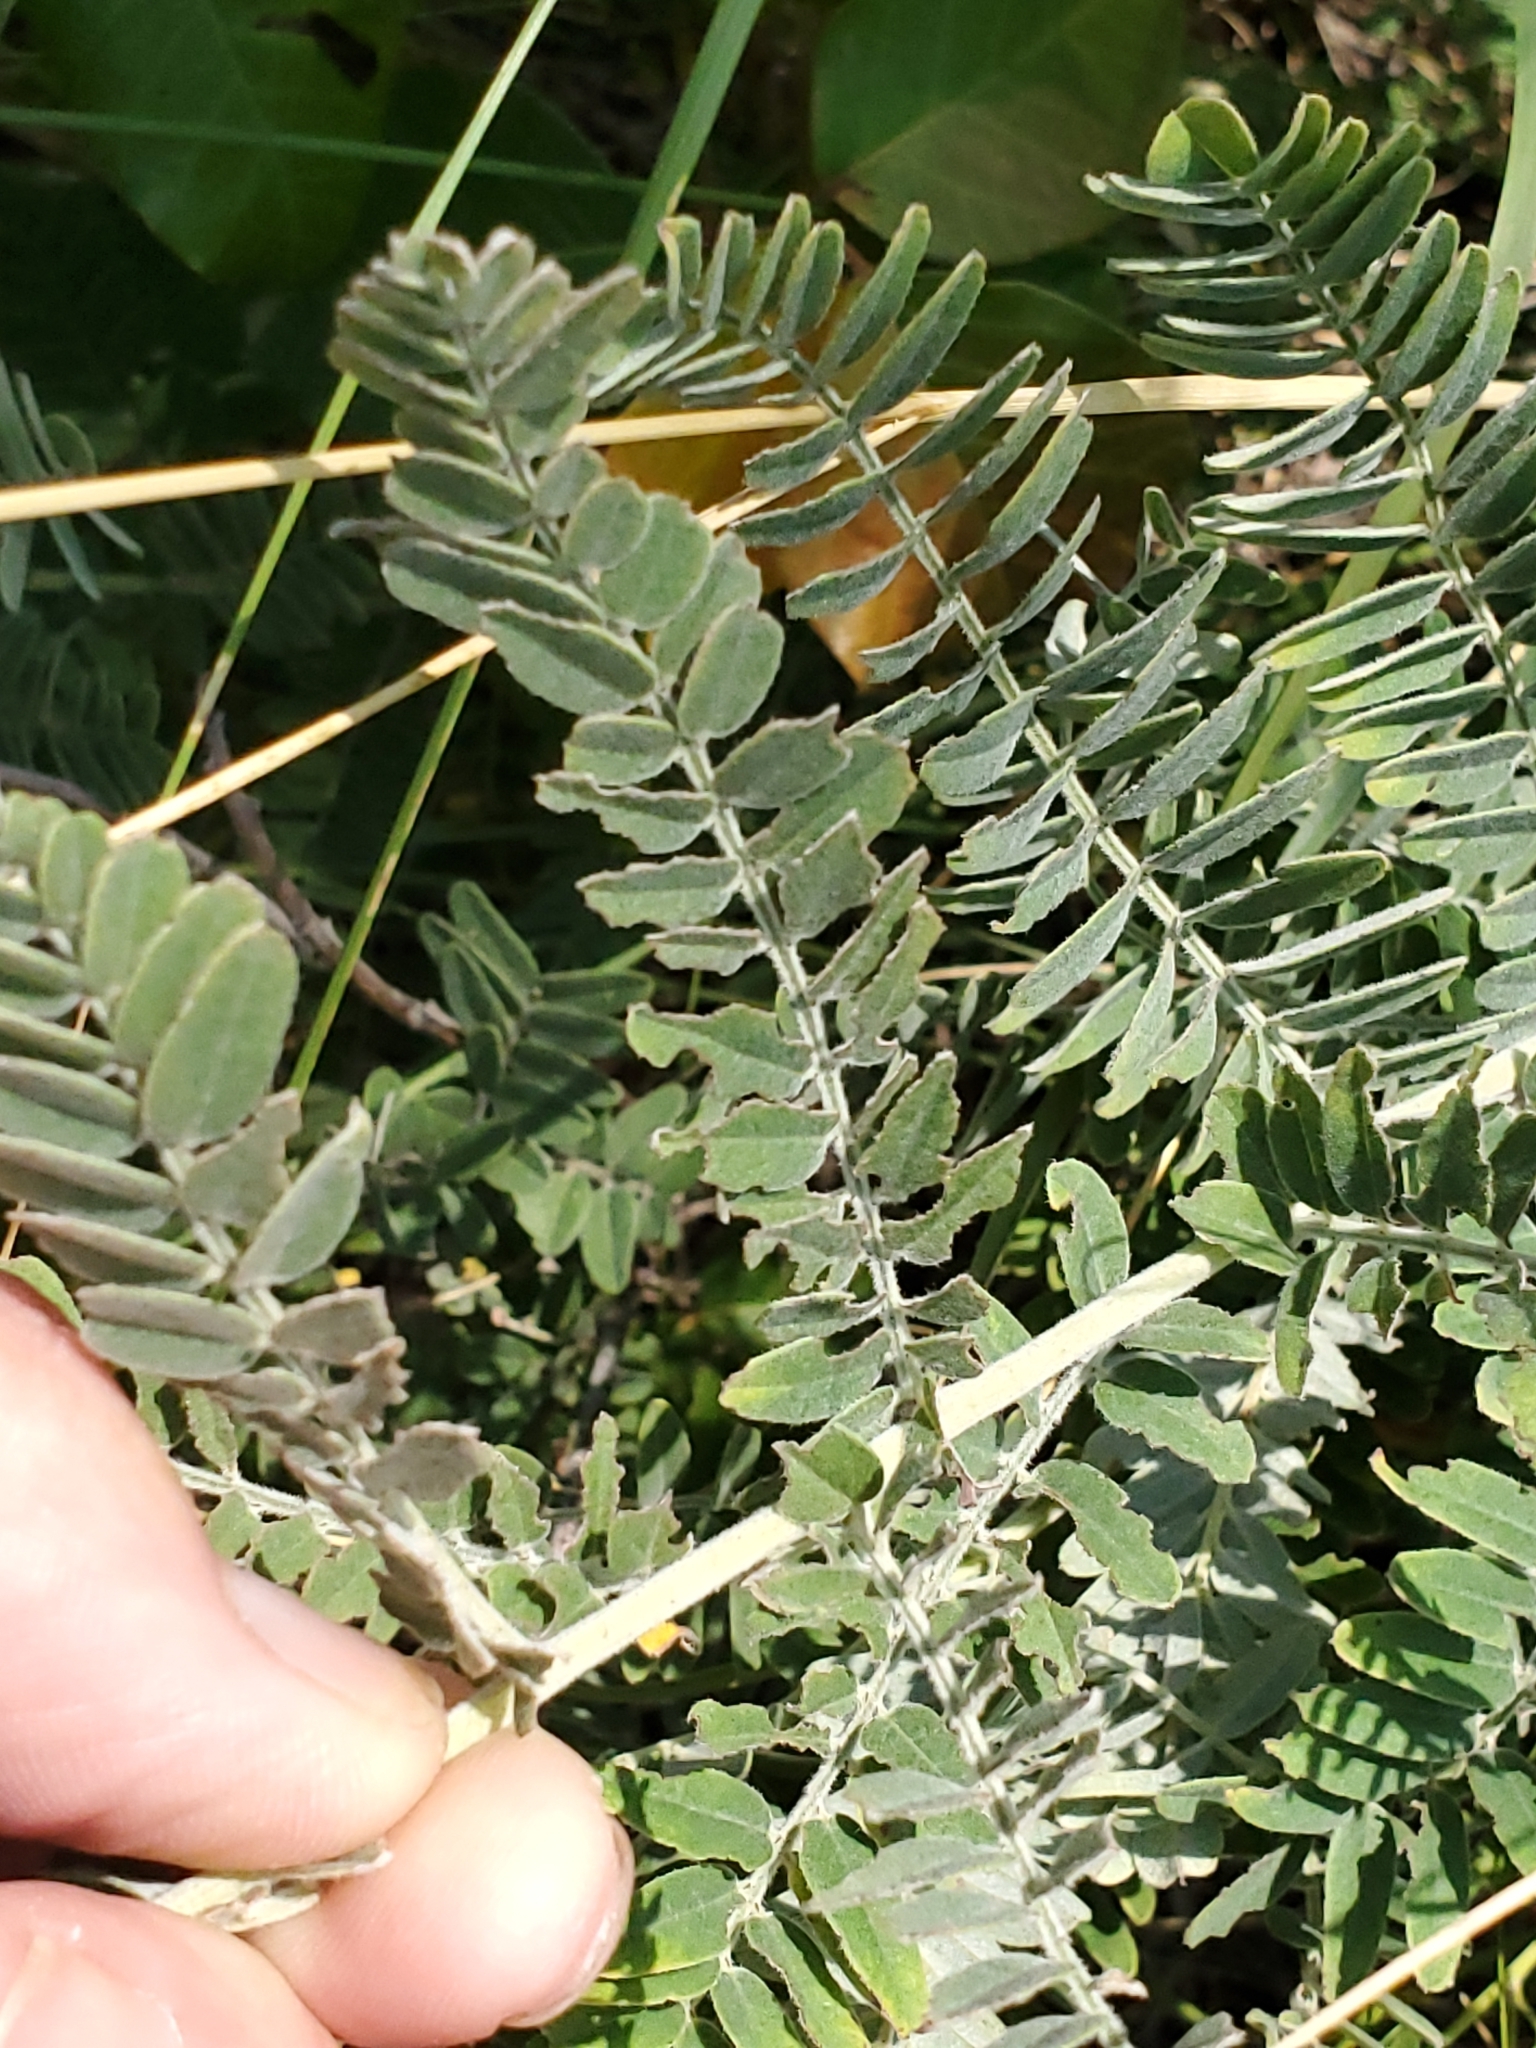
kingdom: Plantae
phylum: Tracheophyta
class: Magnoliopsida
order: Fabales
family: Fabaceae
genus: Amorpha
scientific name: Amorpha canescens
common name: Leadplant
